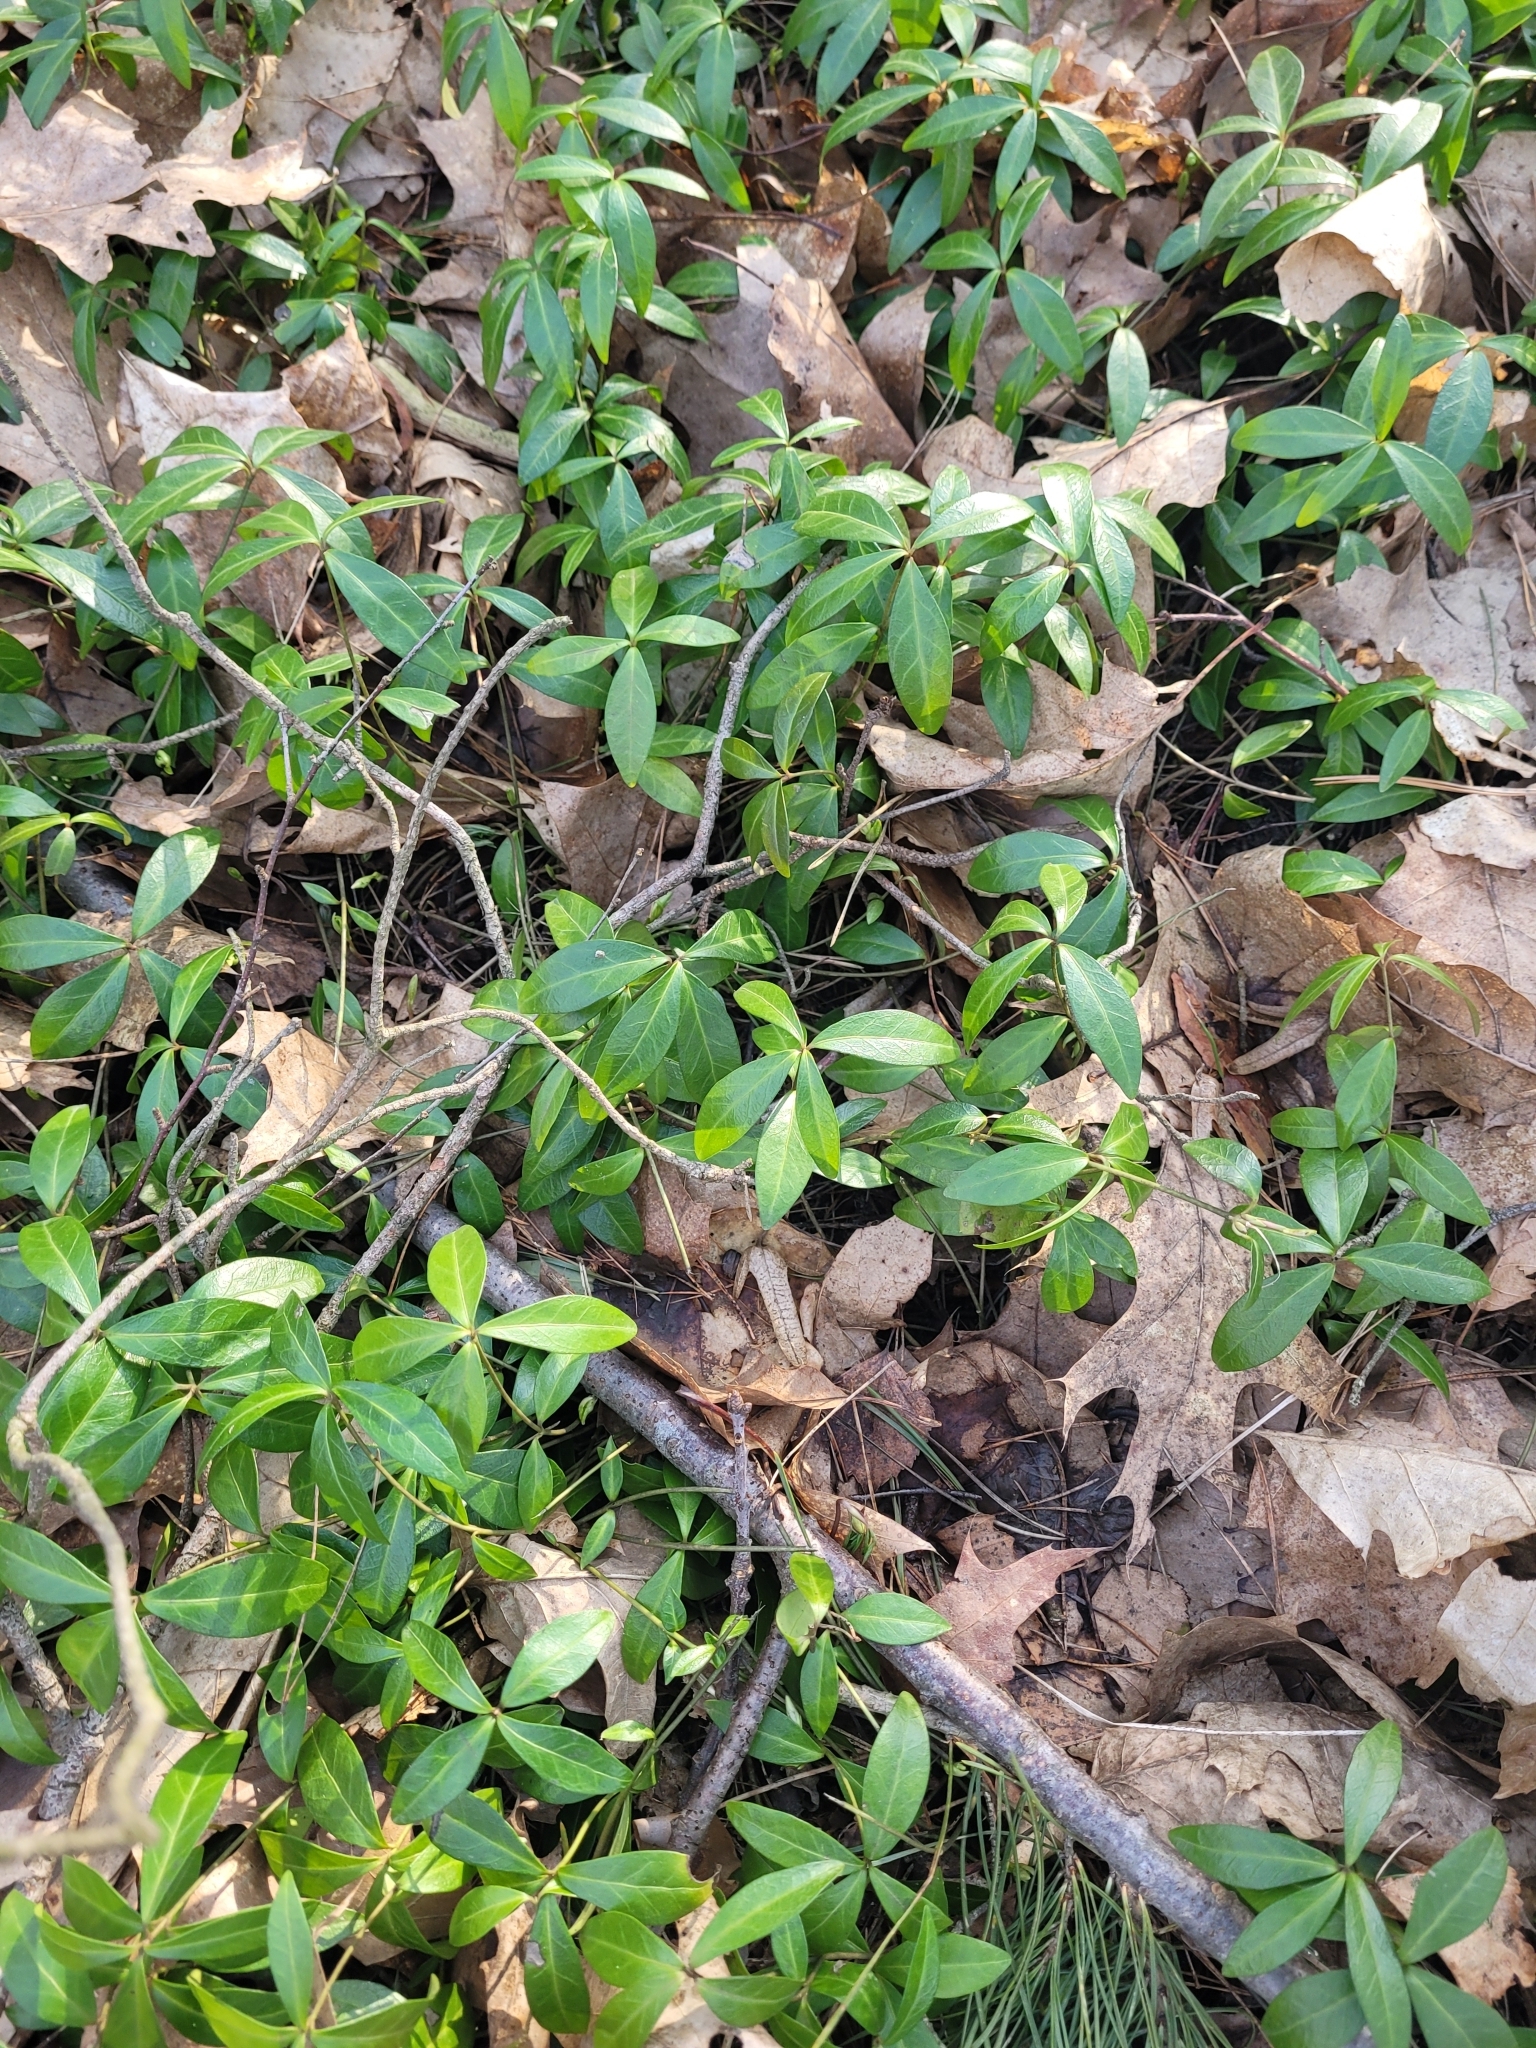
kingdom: Plantae
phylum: Tracheophyta
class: Magnoliopsida
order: Gentianales
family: Apocynaceae
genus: Vinca
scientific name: Vinca minor
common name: Lesser periwinkle
